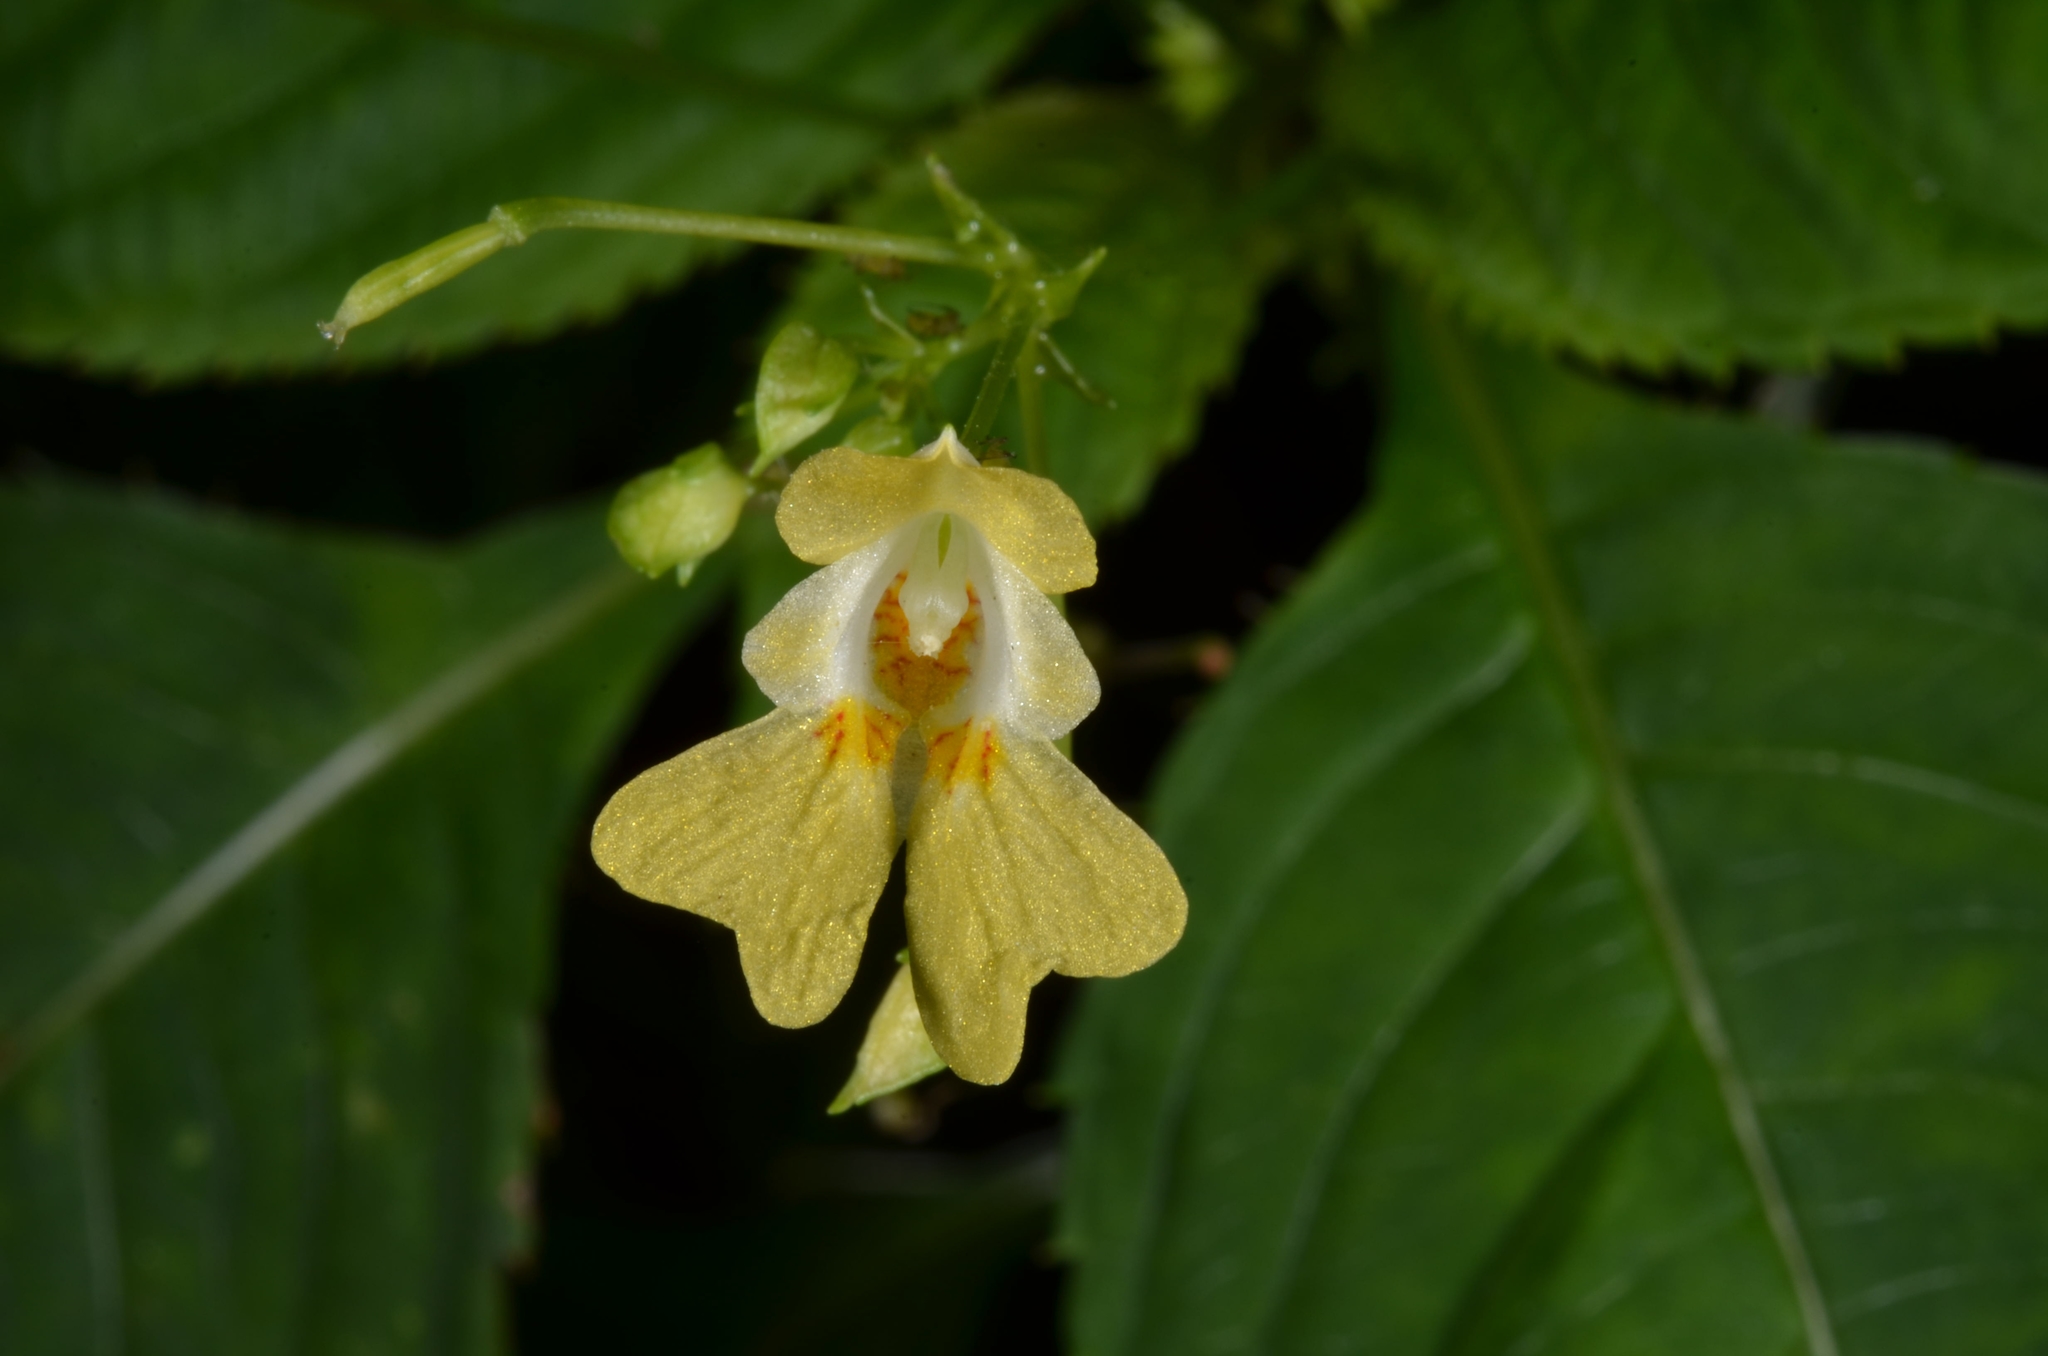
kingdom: Plantae
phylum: Tracheophyta
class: Magnoliopsida
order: Ericales
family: Balsaminaceae
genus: Impatiens
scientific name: Impatiens parviflora
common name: Small balsam
